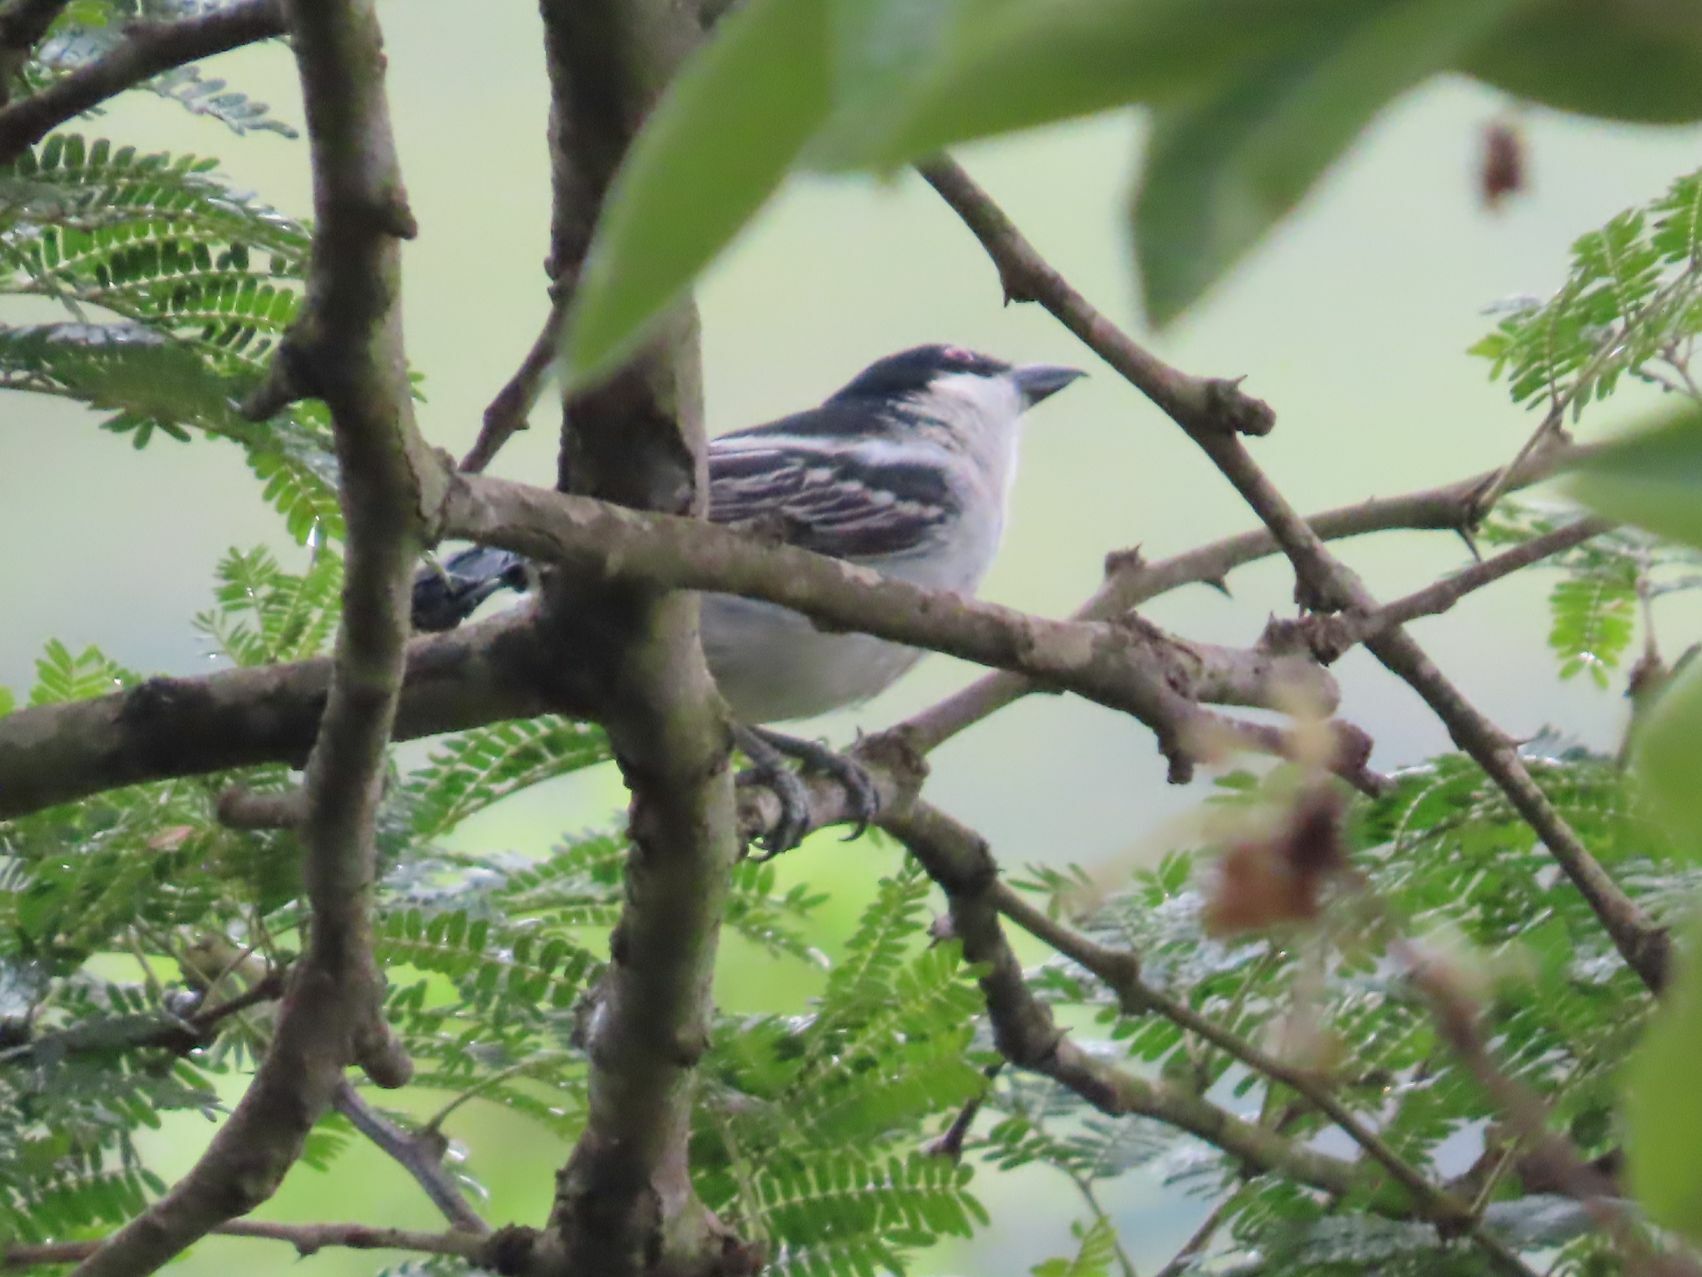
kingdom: Animalia
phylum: Chordata
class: Aves
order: Passeriformes
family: Malaconotidae
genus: Dryoscopus
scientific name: Dryoscopus cubla
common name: Black-backed puffback
